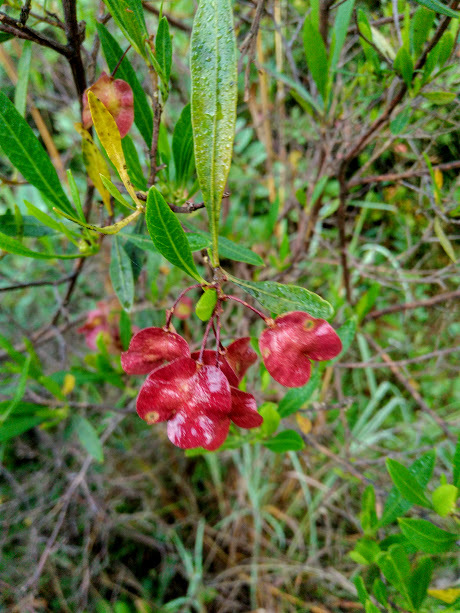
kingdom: Plantae
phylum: Tracheophyta
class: Magnoliopsida
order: Sapindales
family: Sapindaceae
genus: Dodonaea
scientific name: Dodonaea viscosa
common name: Hopbush
